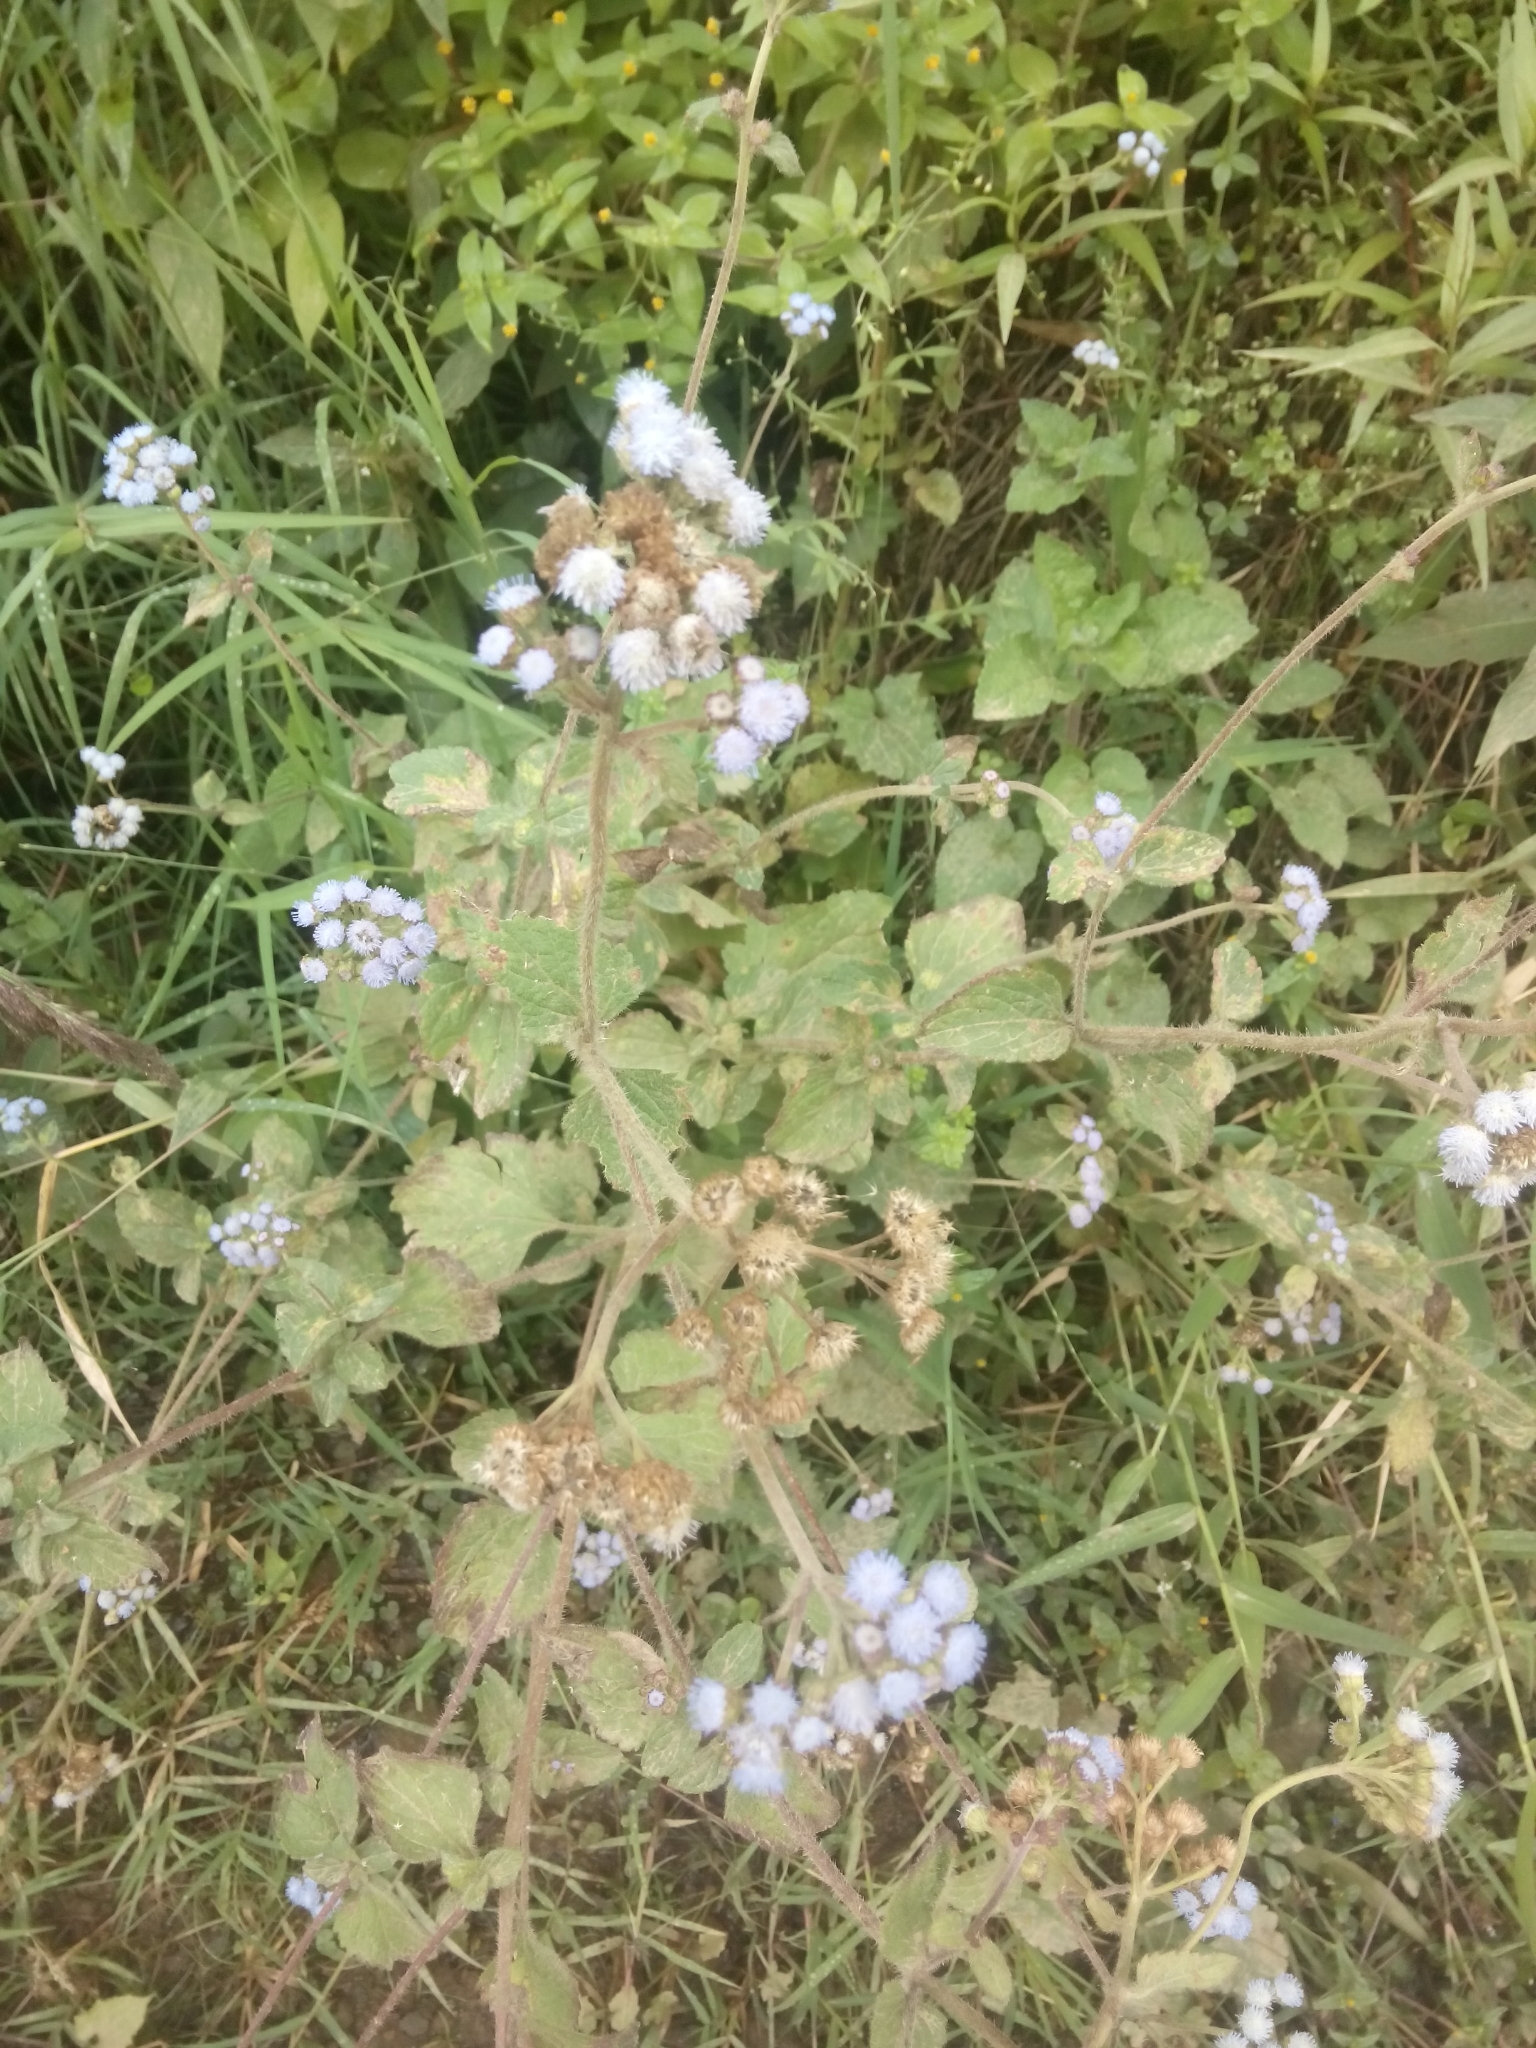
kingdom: Plantae
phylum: Tracheophyta
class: Magnoliopsida
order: Asterales
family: Asteraceae
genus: Ageratum
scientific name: Ageratum conyzoides
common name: Tropical whiteweed
